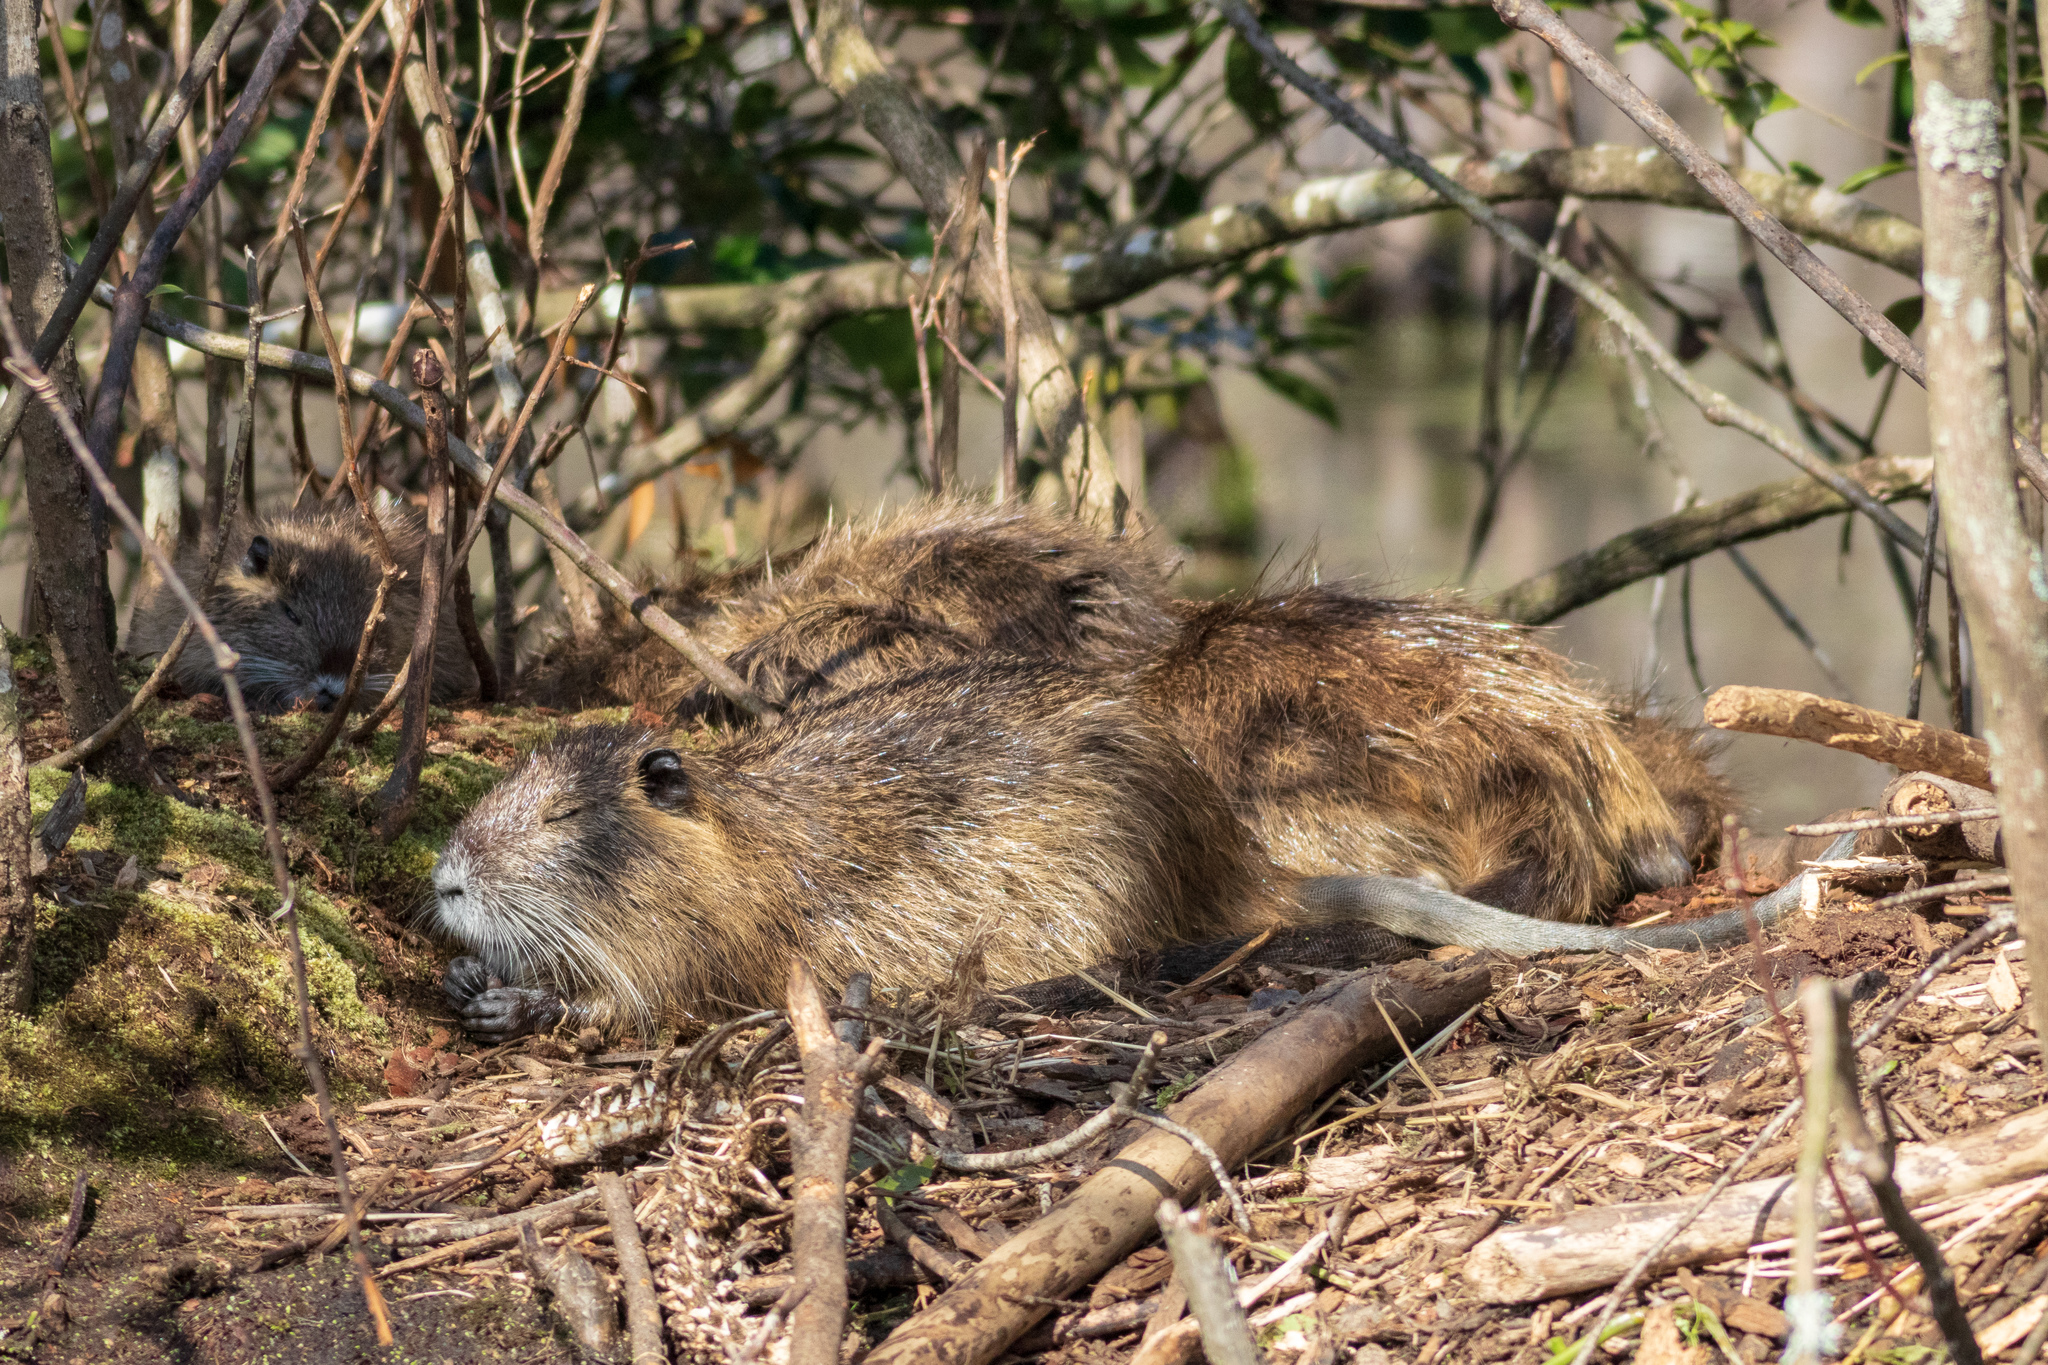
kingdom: Animalia
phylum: Chordata
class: Mammalia
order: Rodentia
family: Myocastoridae
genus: Myocastor
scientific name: Myocastor coypus
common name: Coypu
